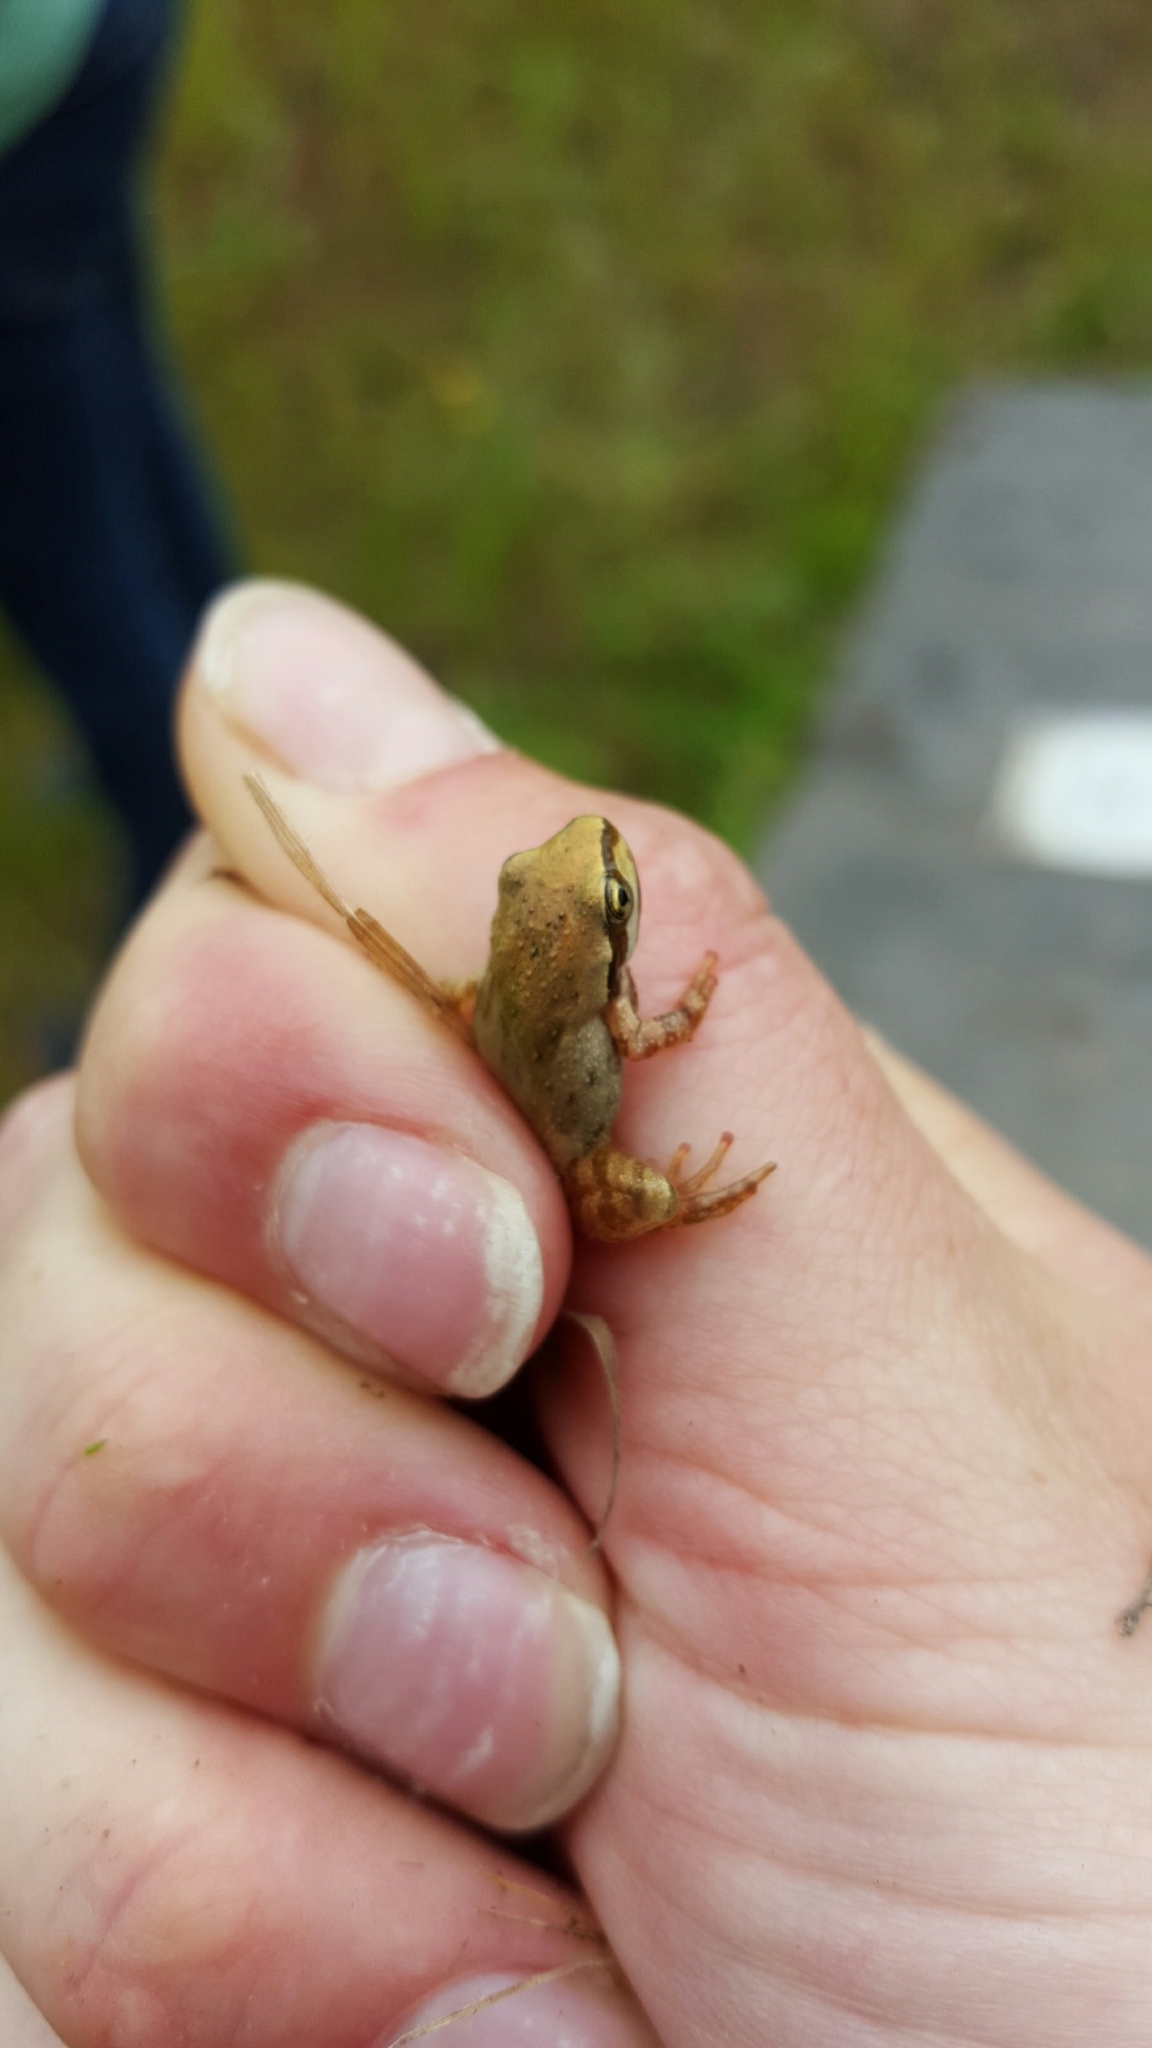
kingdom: Animalia
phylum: Chordata
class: Amphibia
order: Anura
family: Hylidae
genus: Pseudacris
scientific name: Pseudacris regilla
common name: Pacific chorus frog
